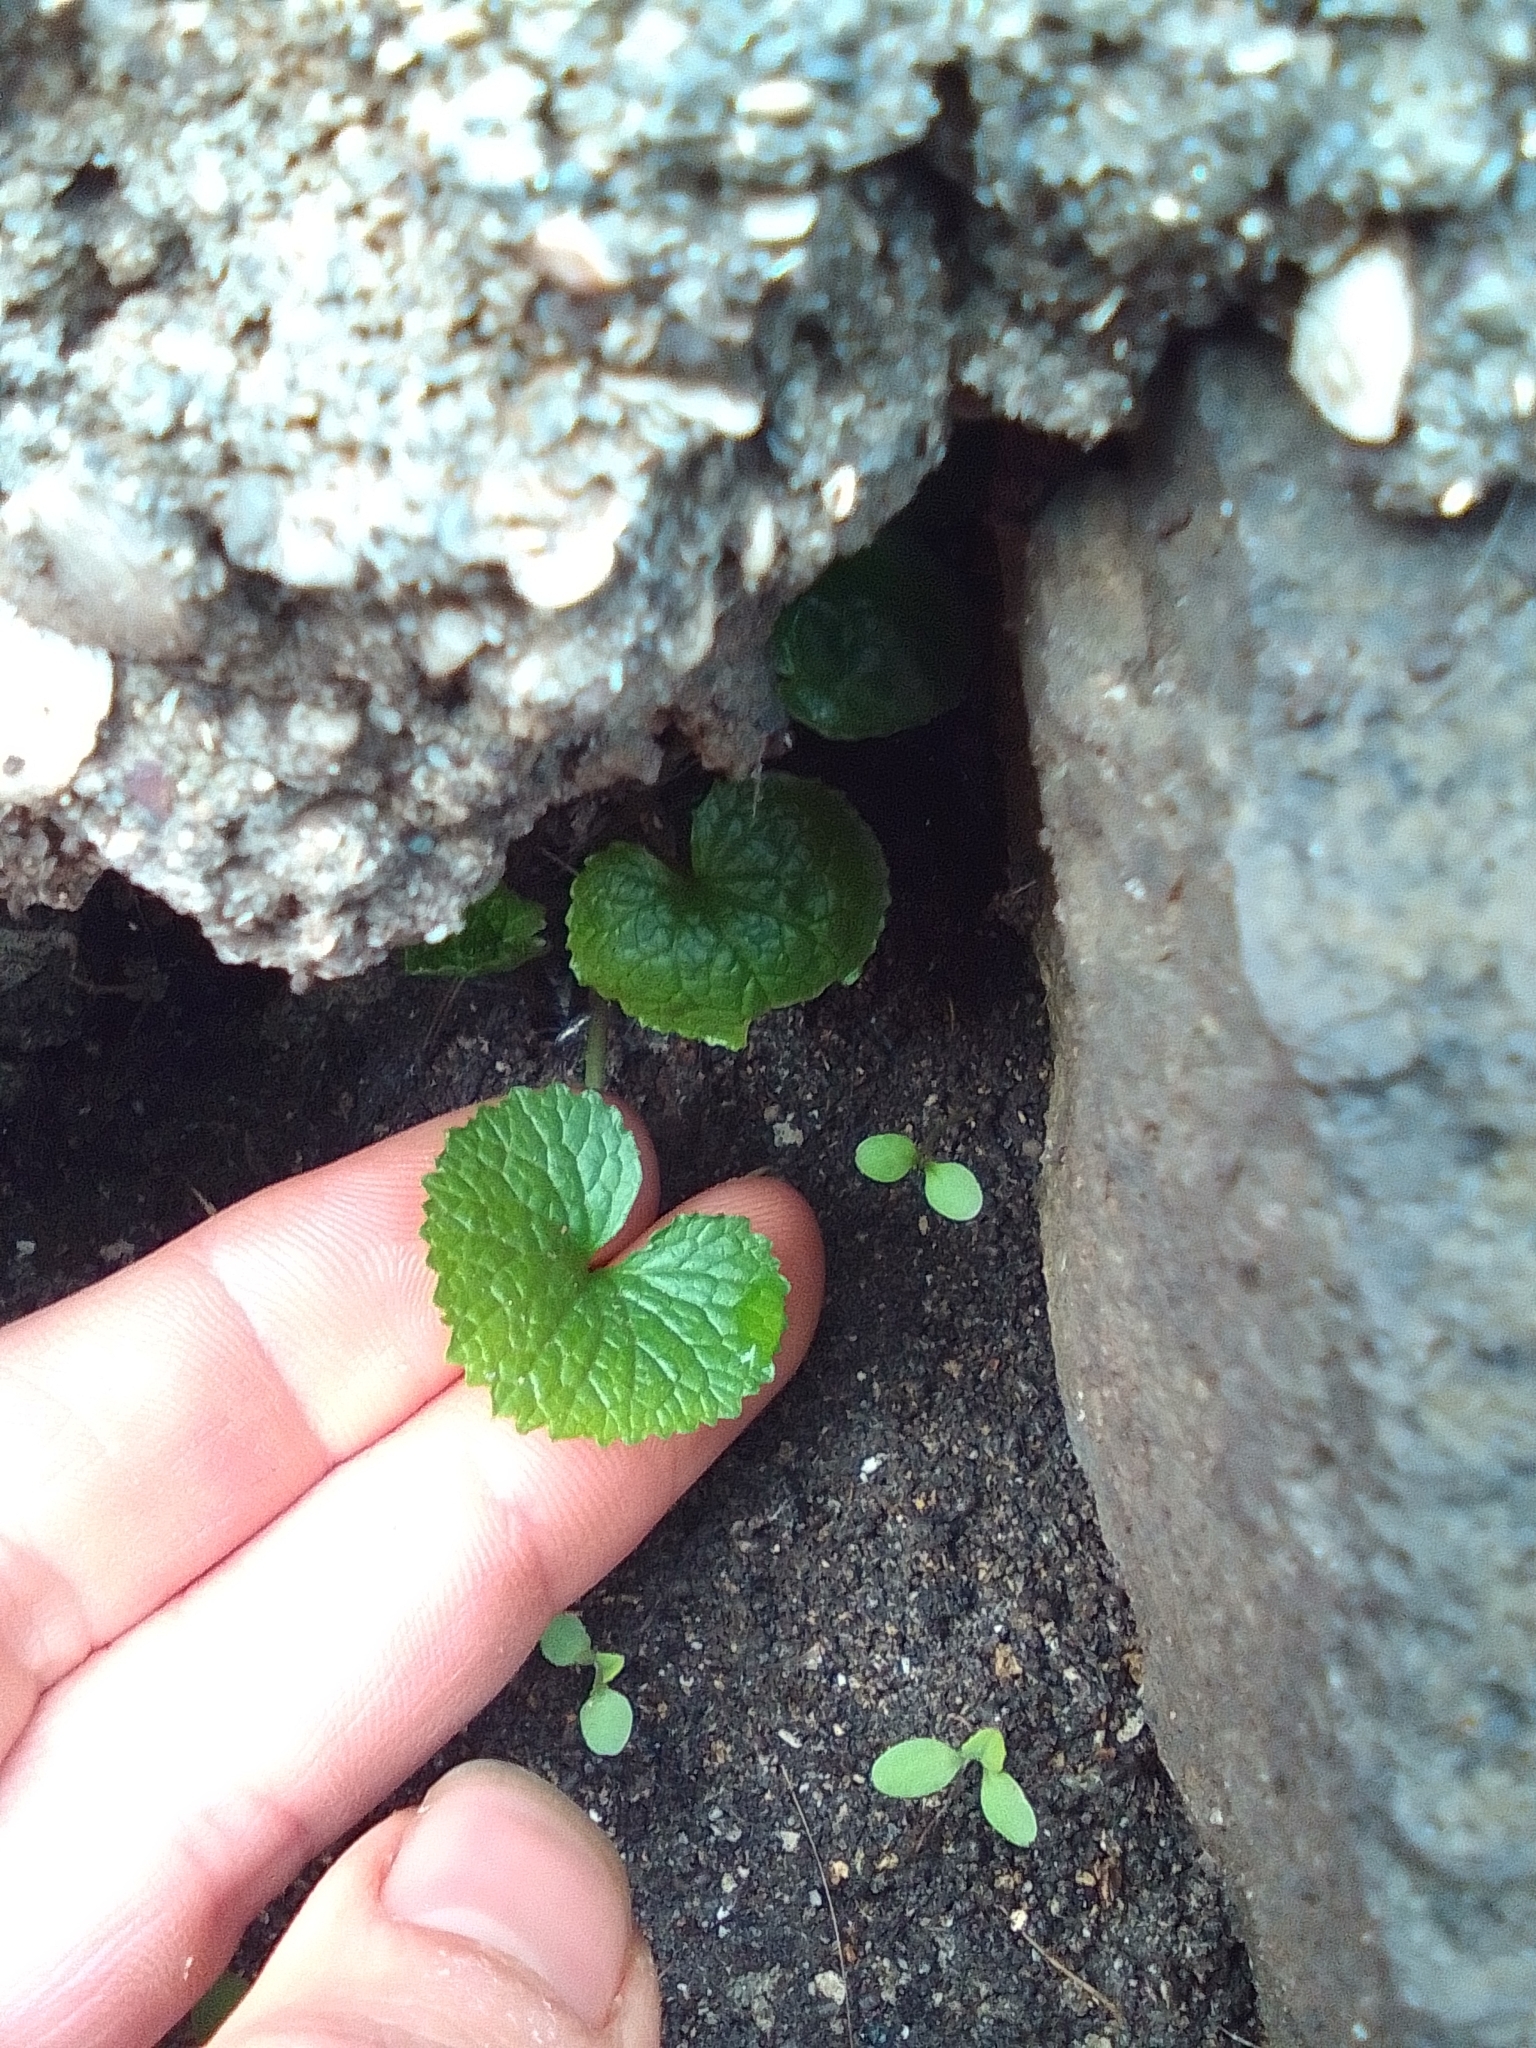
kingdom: Plantae
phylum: Tracheophyta
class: Magnoliopsida
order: Brassicales
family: Brassicaceae
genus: Alliaria
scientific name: Alliaria petiolata
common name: Garlic mustard
